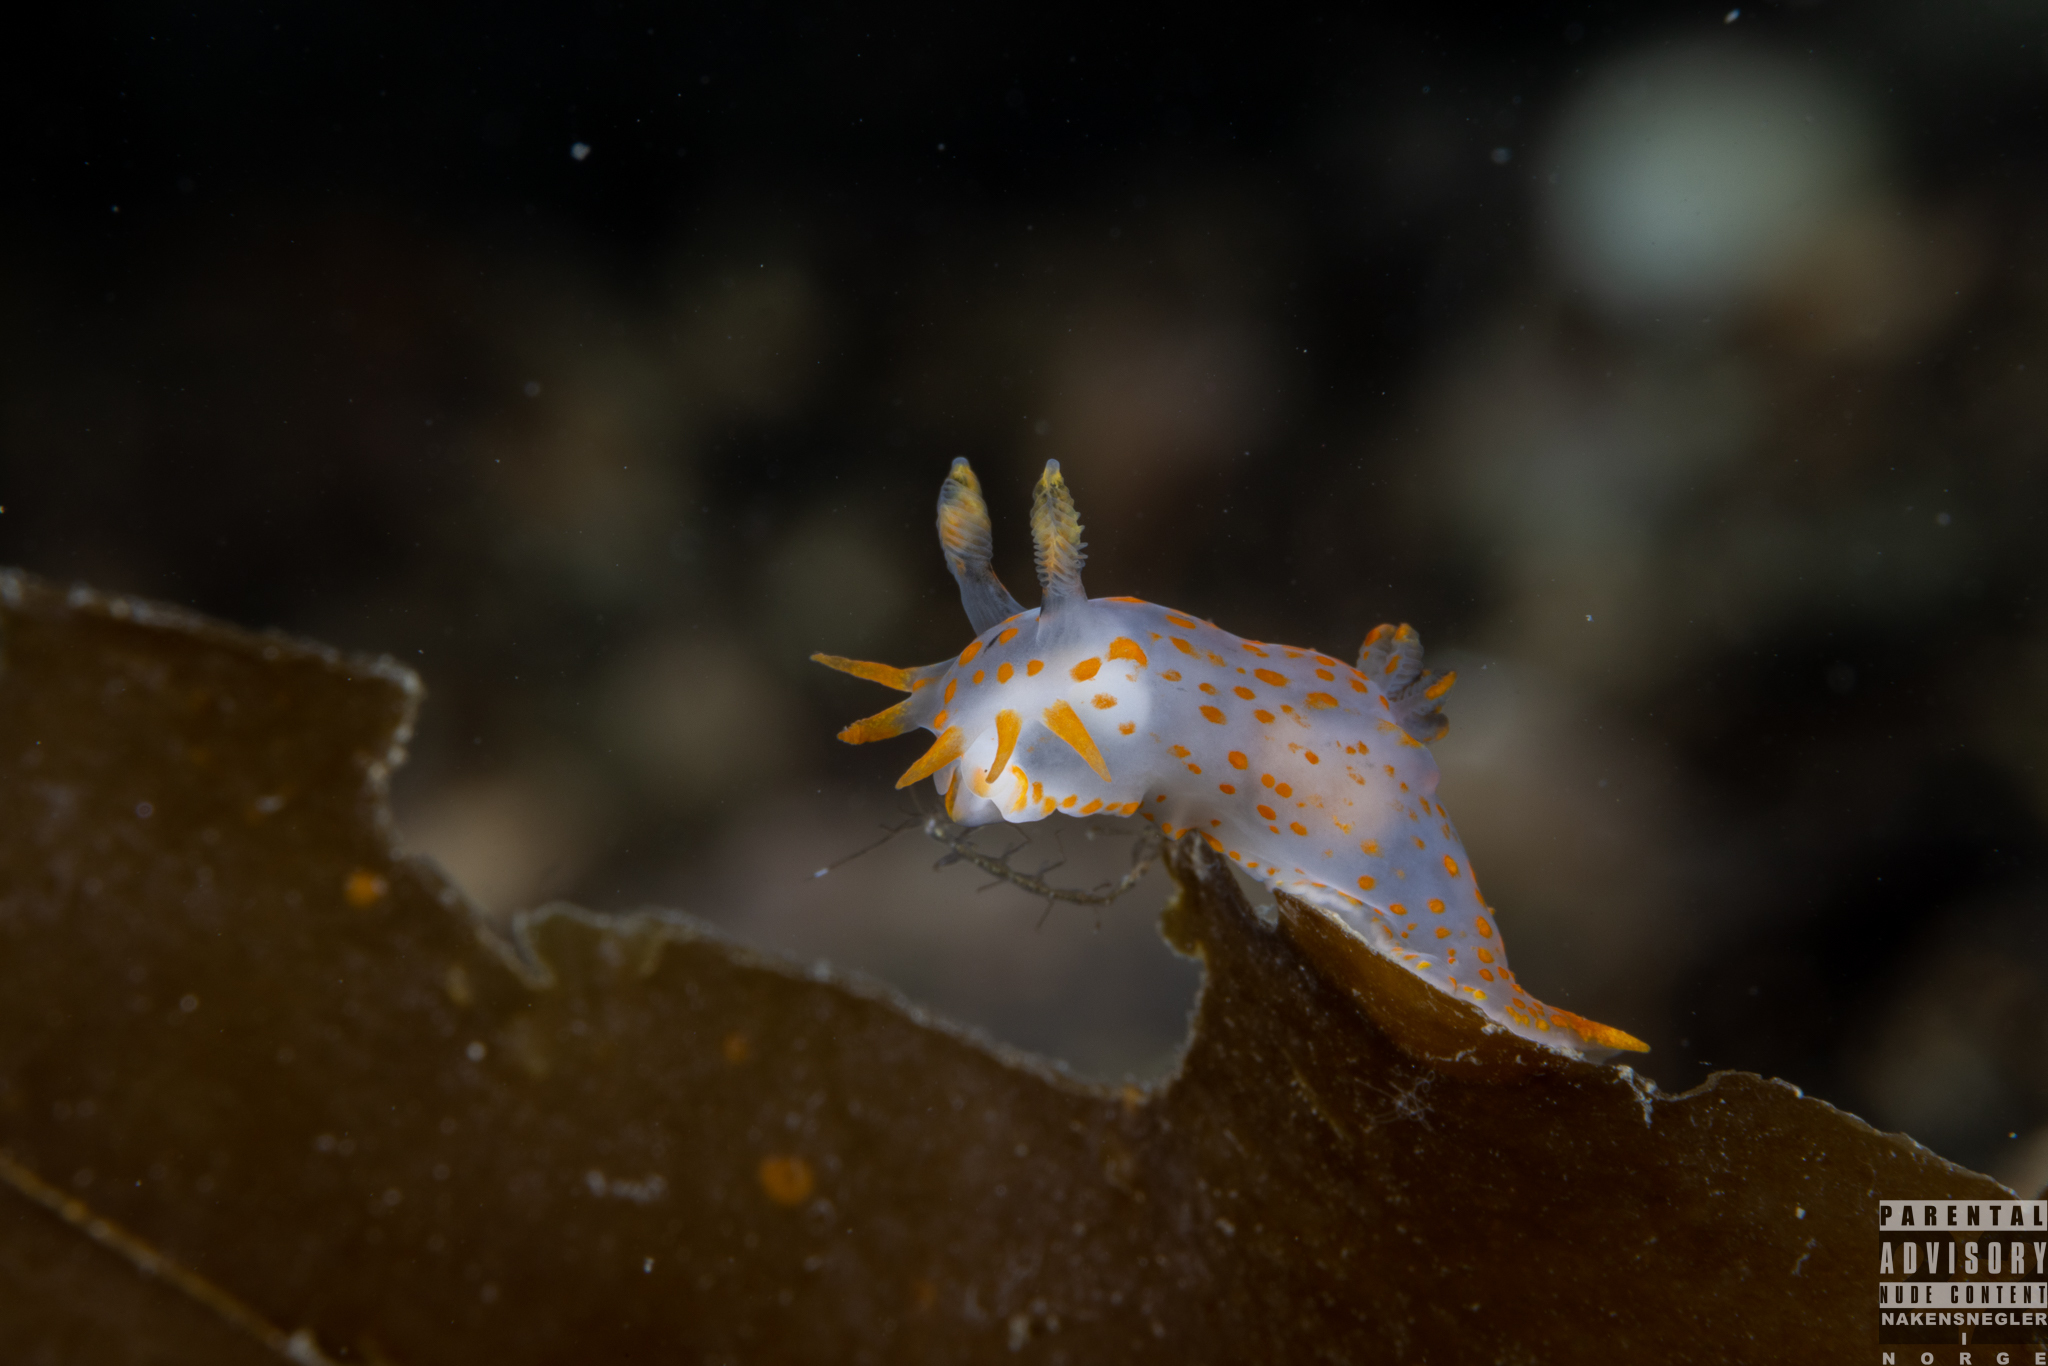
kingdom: Animalia
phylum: Mollusca
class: Gastropoda
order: Nudibranchia
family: Polyceridae
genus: Polycera
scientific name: Polycera quadrilineata
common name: Four-striped polycera
